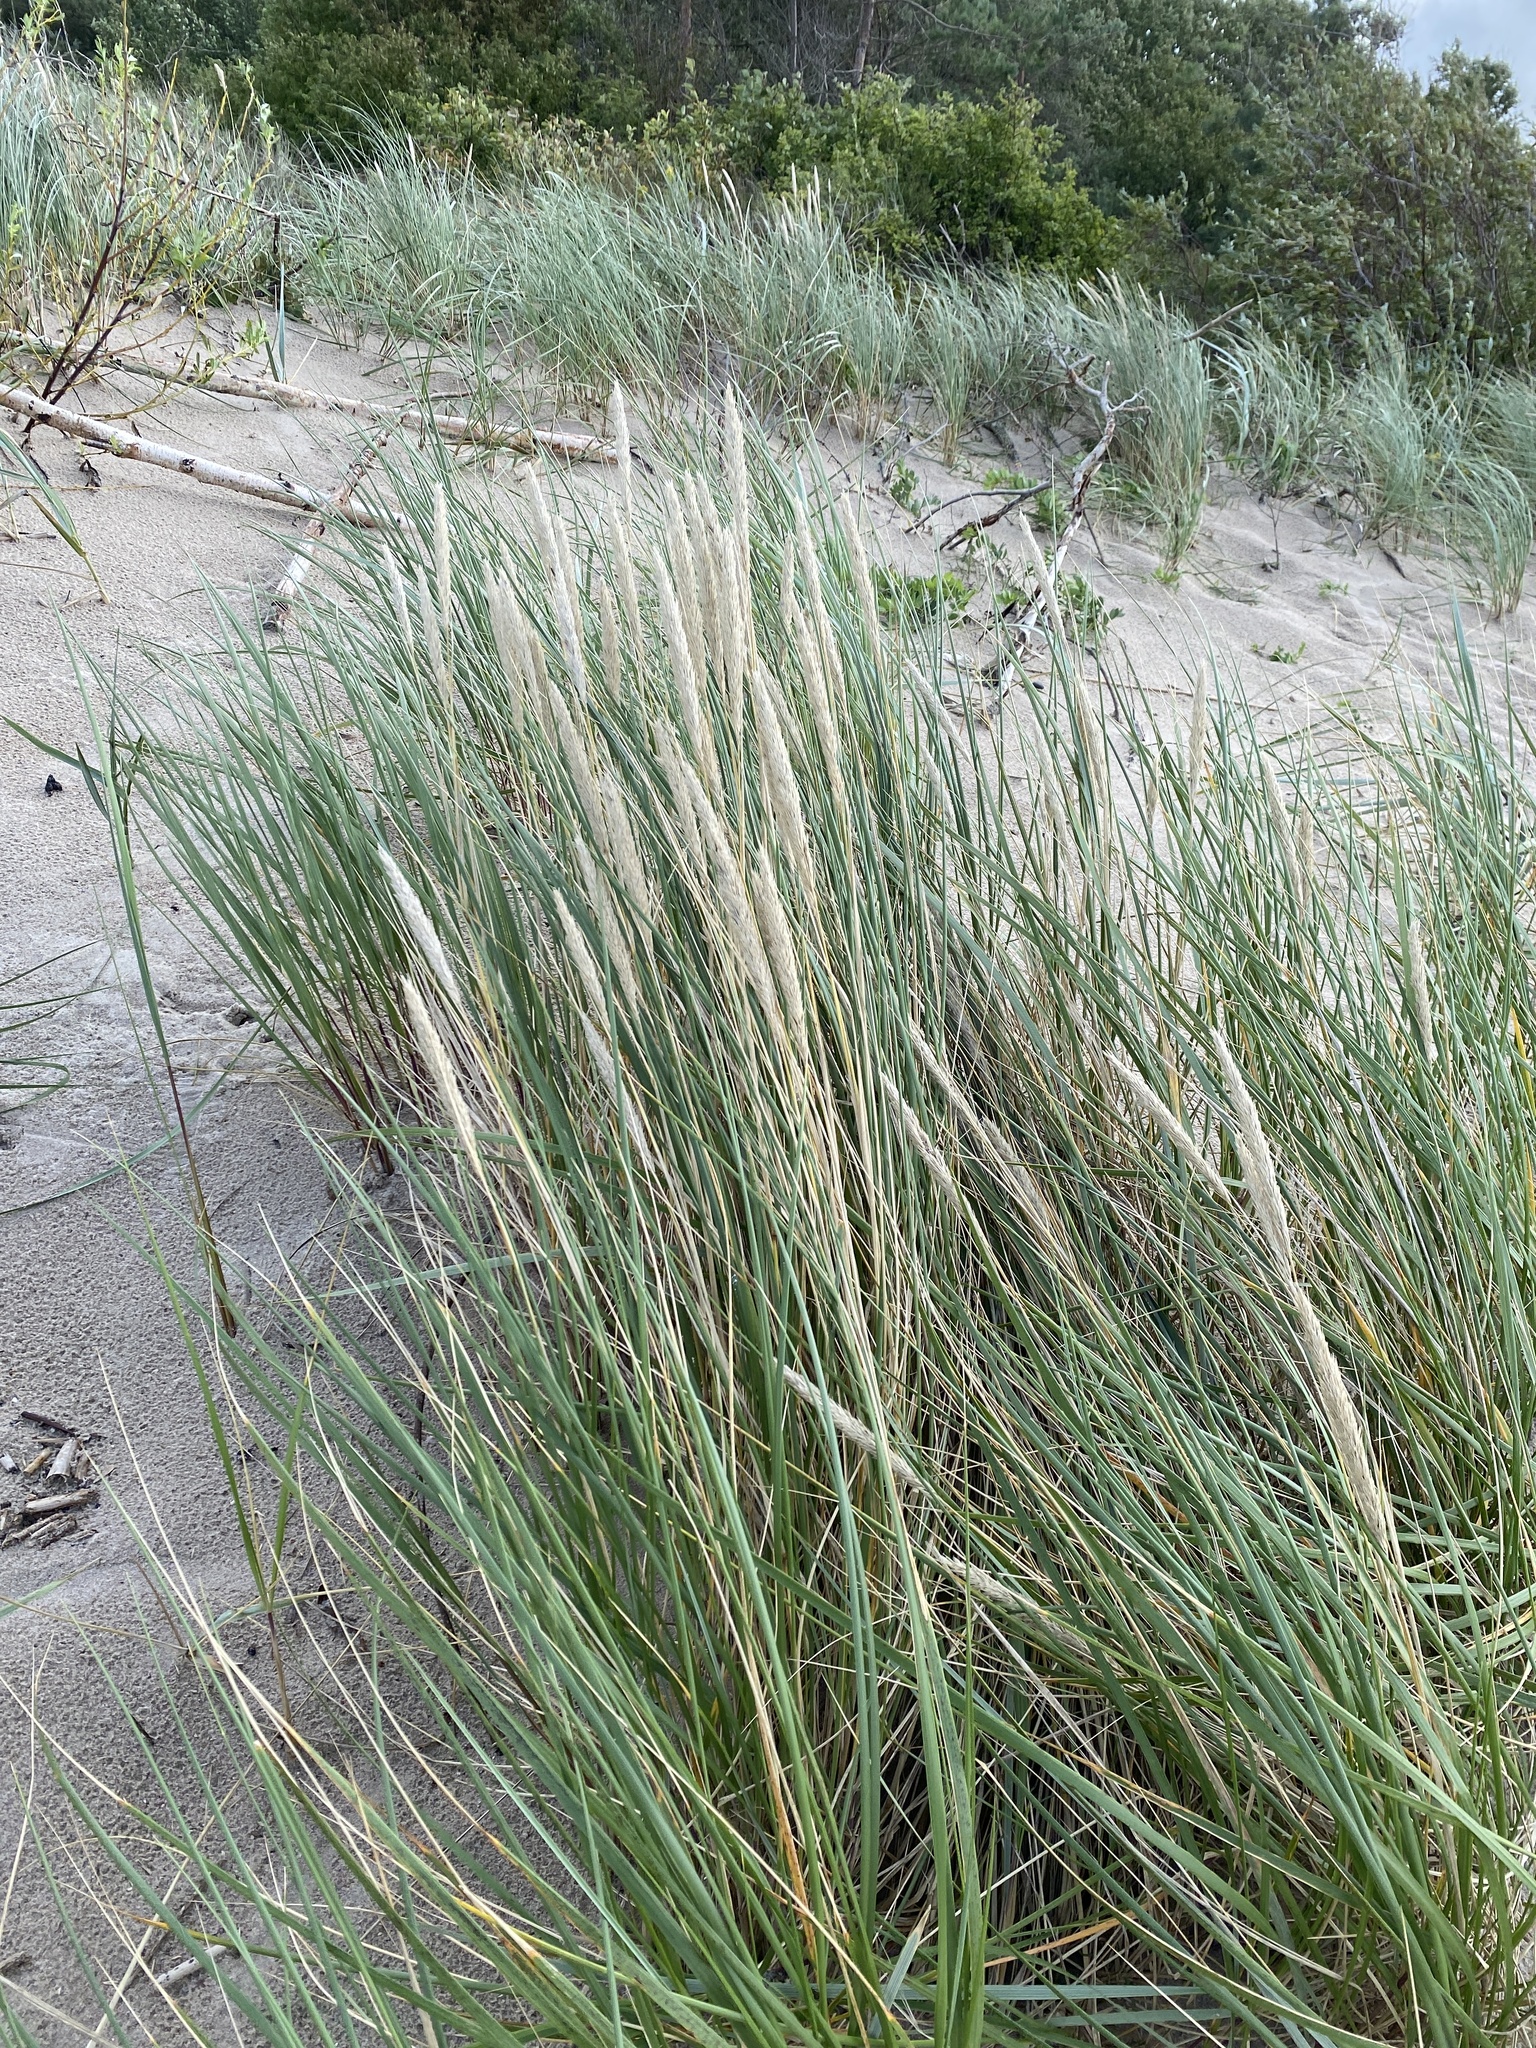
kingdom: Plantae
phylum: Tracheophyta
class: Liliopsida
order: Poales
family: Poaceae
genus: Calamagrostis
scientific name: Calamagrostis arenaria
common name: European beachgrass
